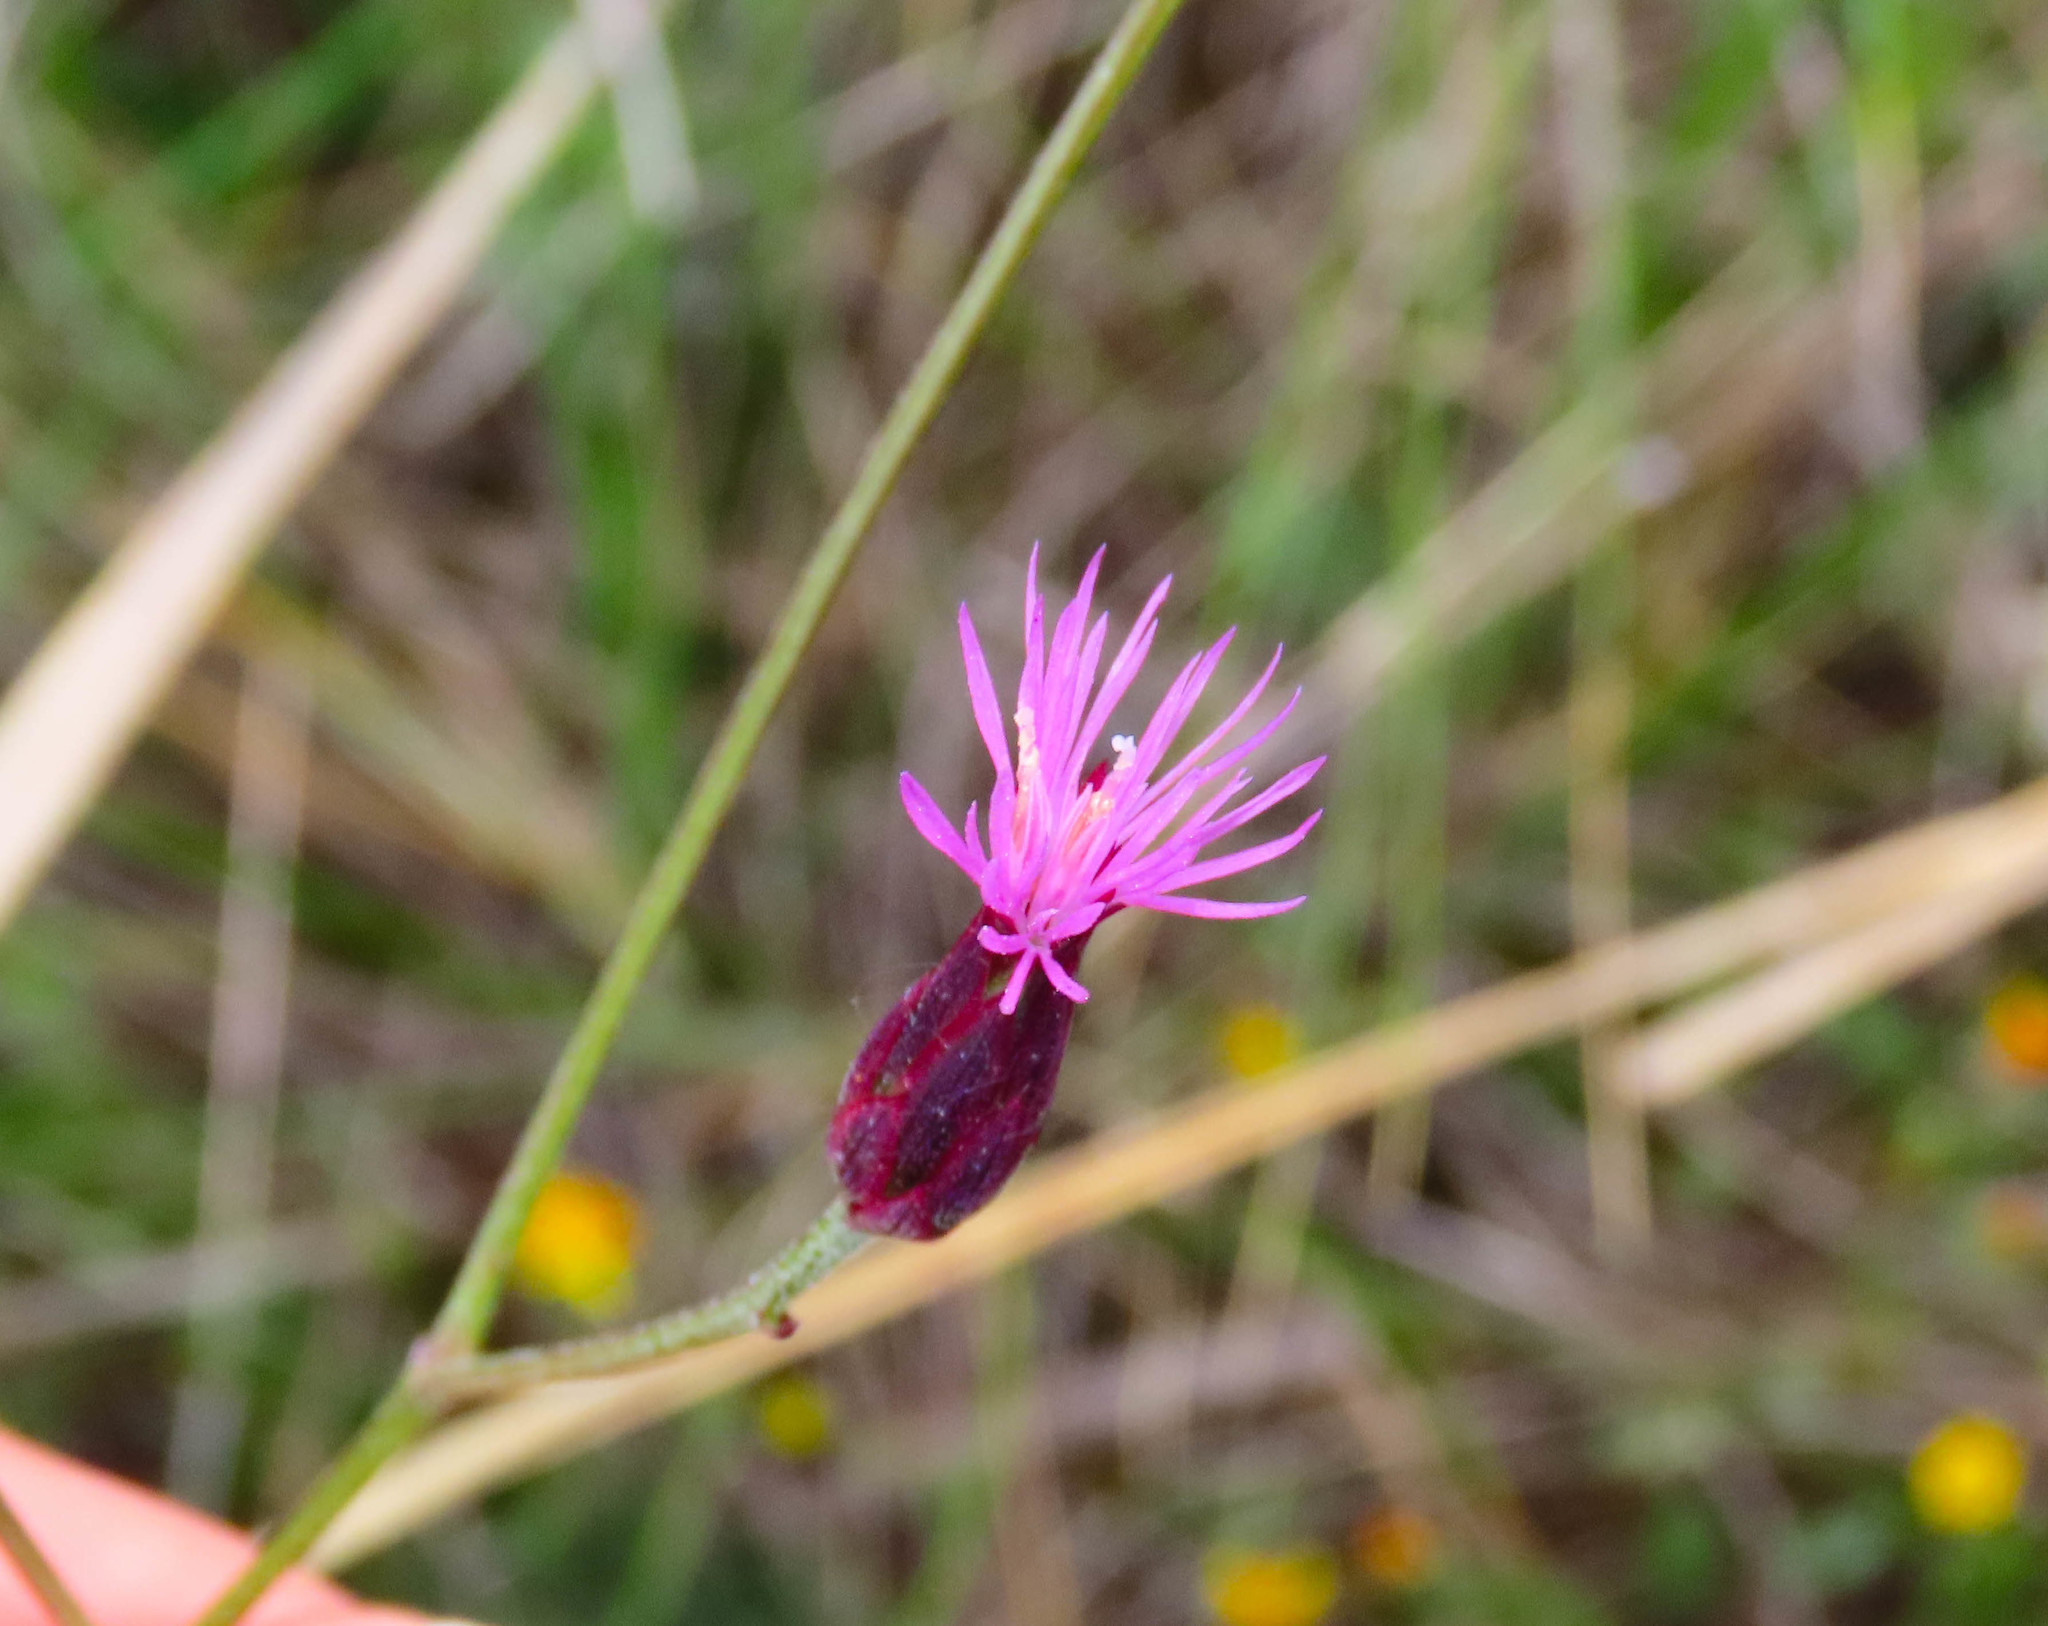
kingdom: Plantae
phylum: Tracheophyta
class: Magnoliopsida
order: Asterales
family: Asteraceae
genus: Crupina
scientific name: Crupina vulgaris
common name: Common crupina
